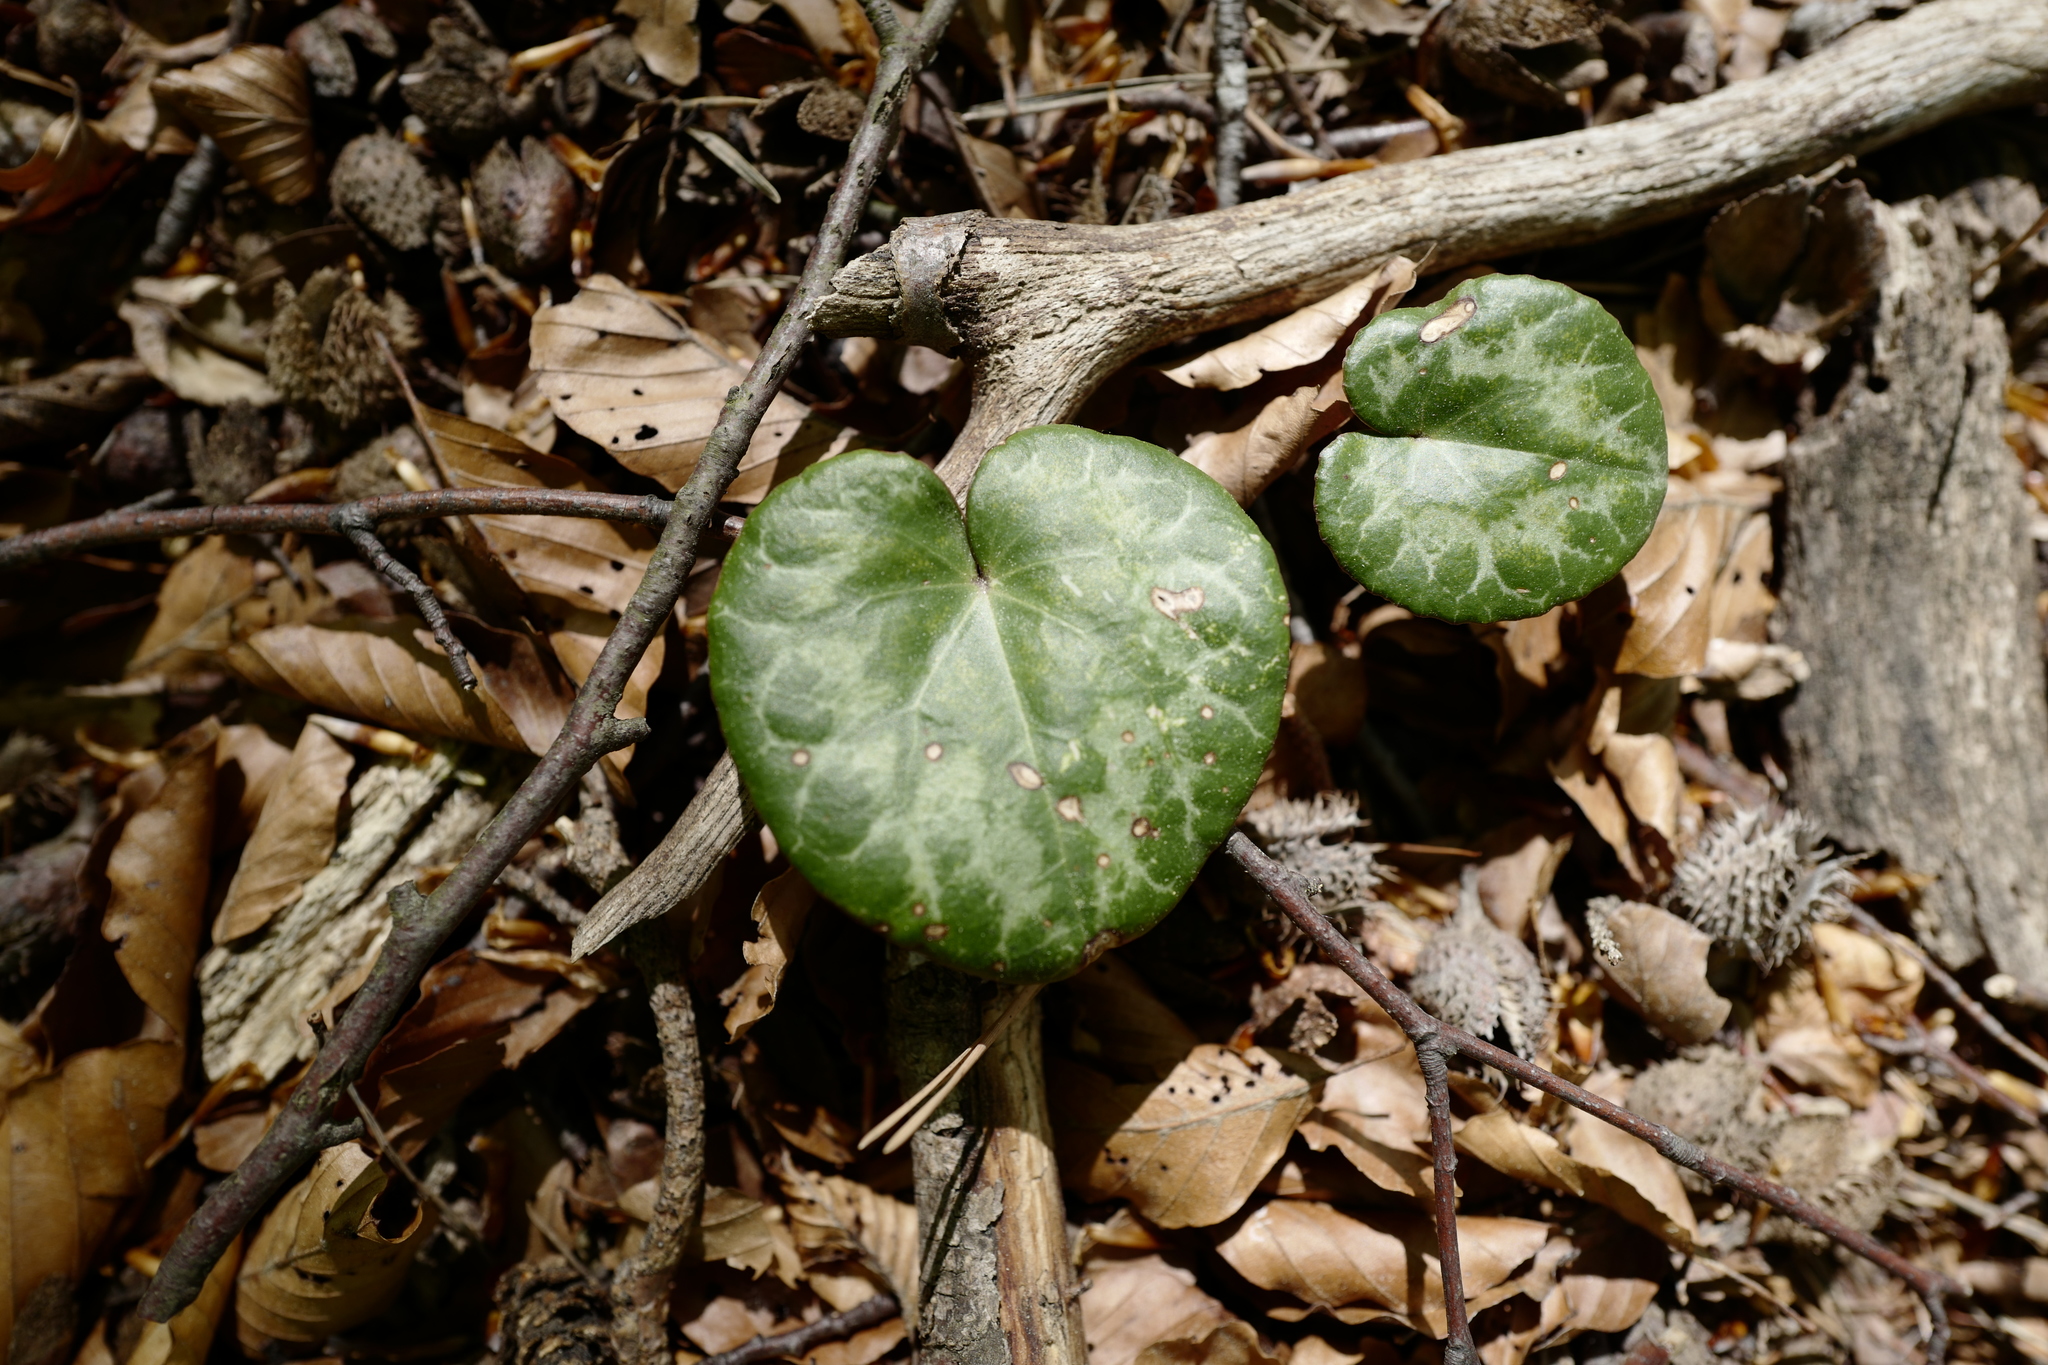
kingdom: Plantae
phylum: Tracheophyta
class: Magnoliopsida
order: Ericales
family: Primulaceae
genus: Cyclamen
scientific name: Cyclamen purpurascens
